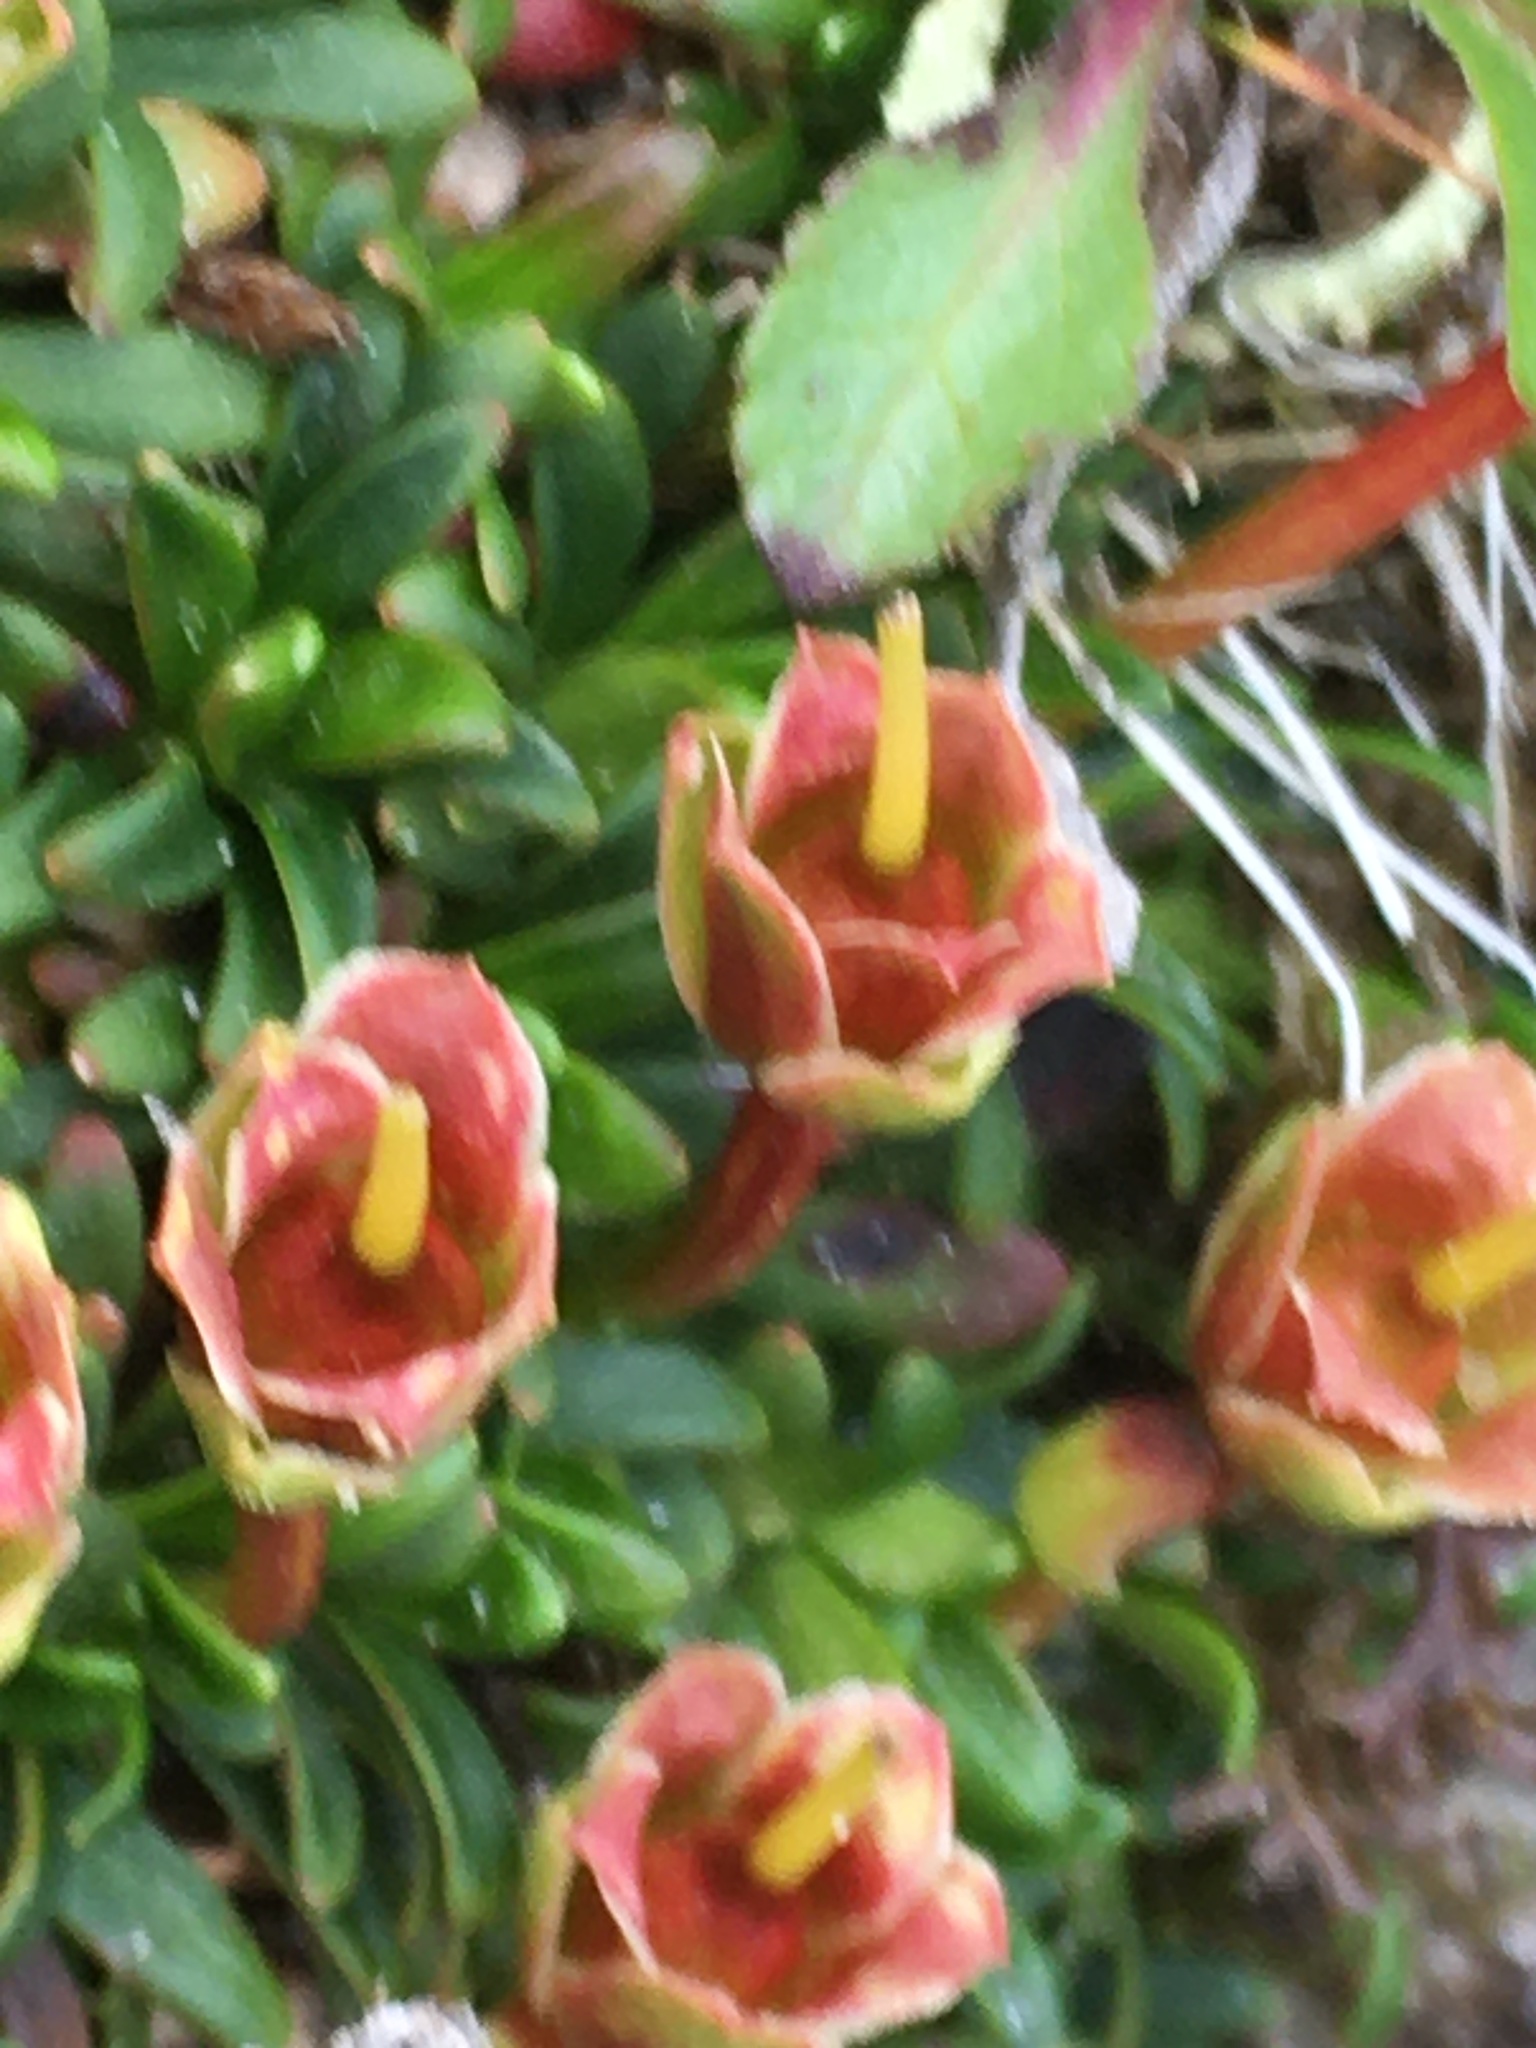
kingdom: Plantae
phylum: Tracheophyta
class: Magnoliopsida
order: Ericales
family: Diapensiaceae
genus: Diapensia
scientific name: Diapensia lapponica
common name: Diapensia
